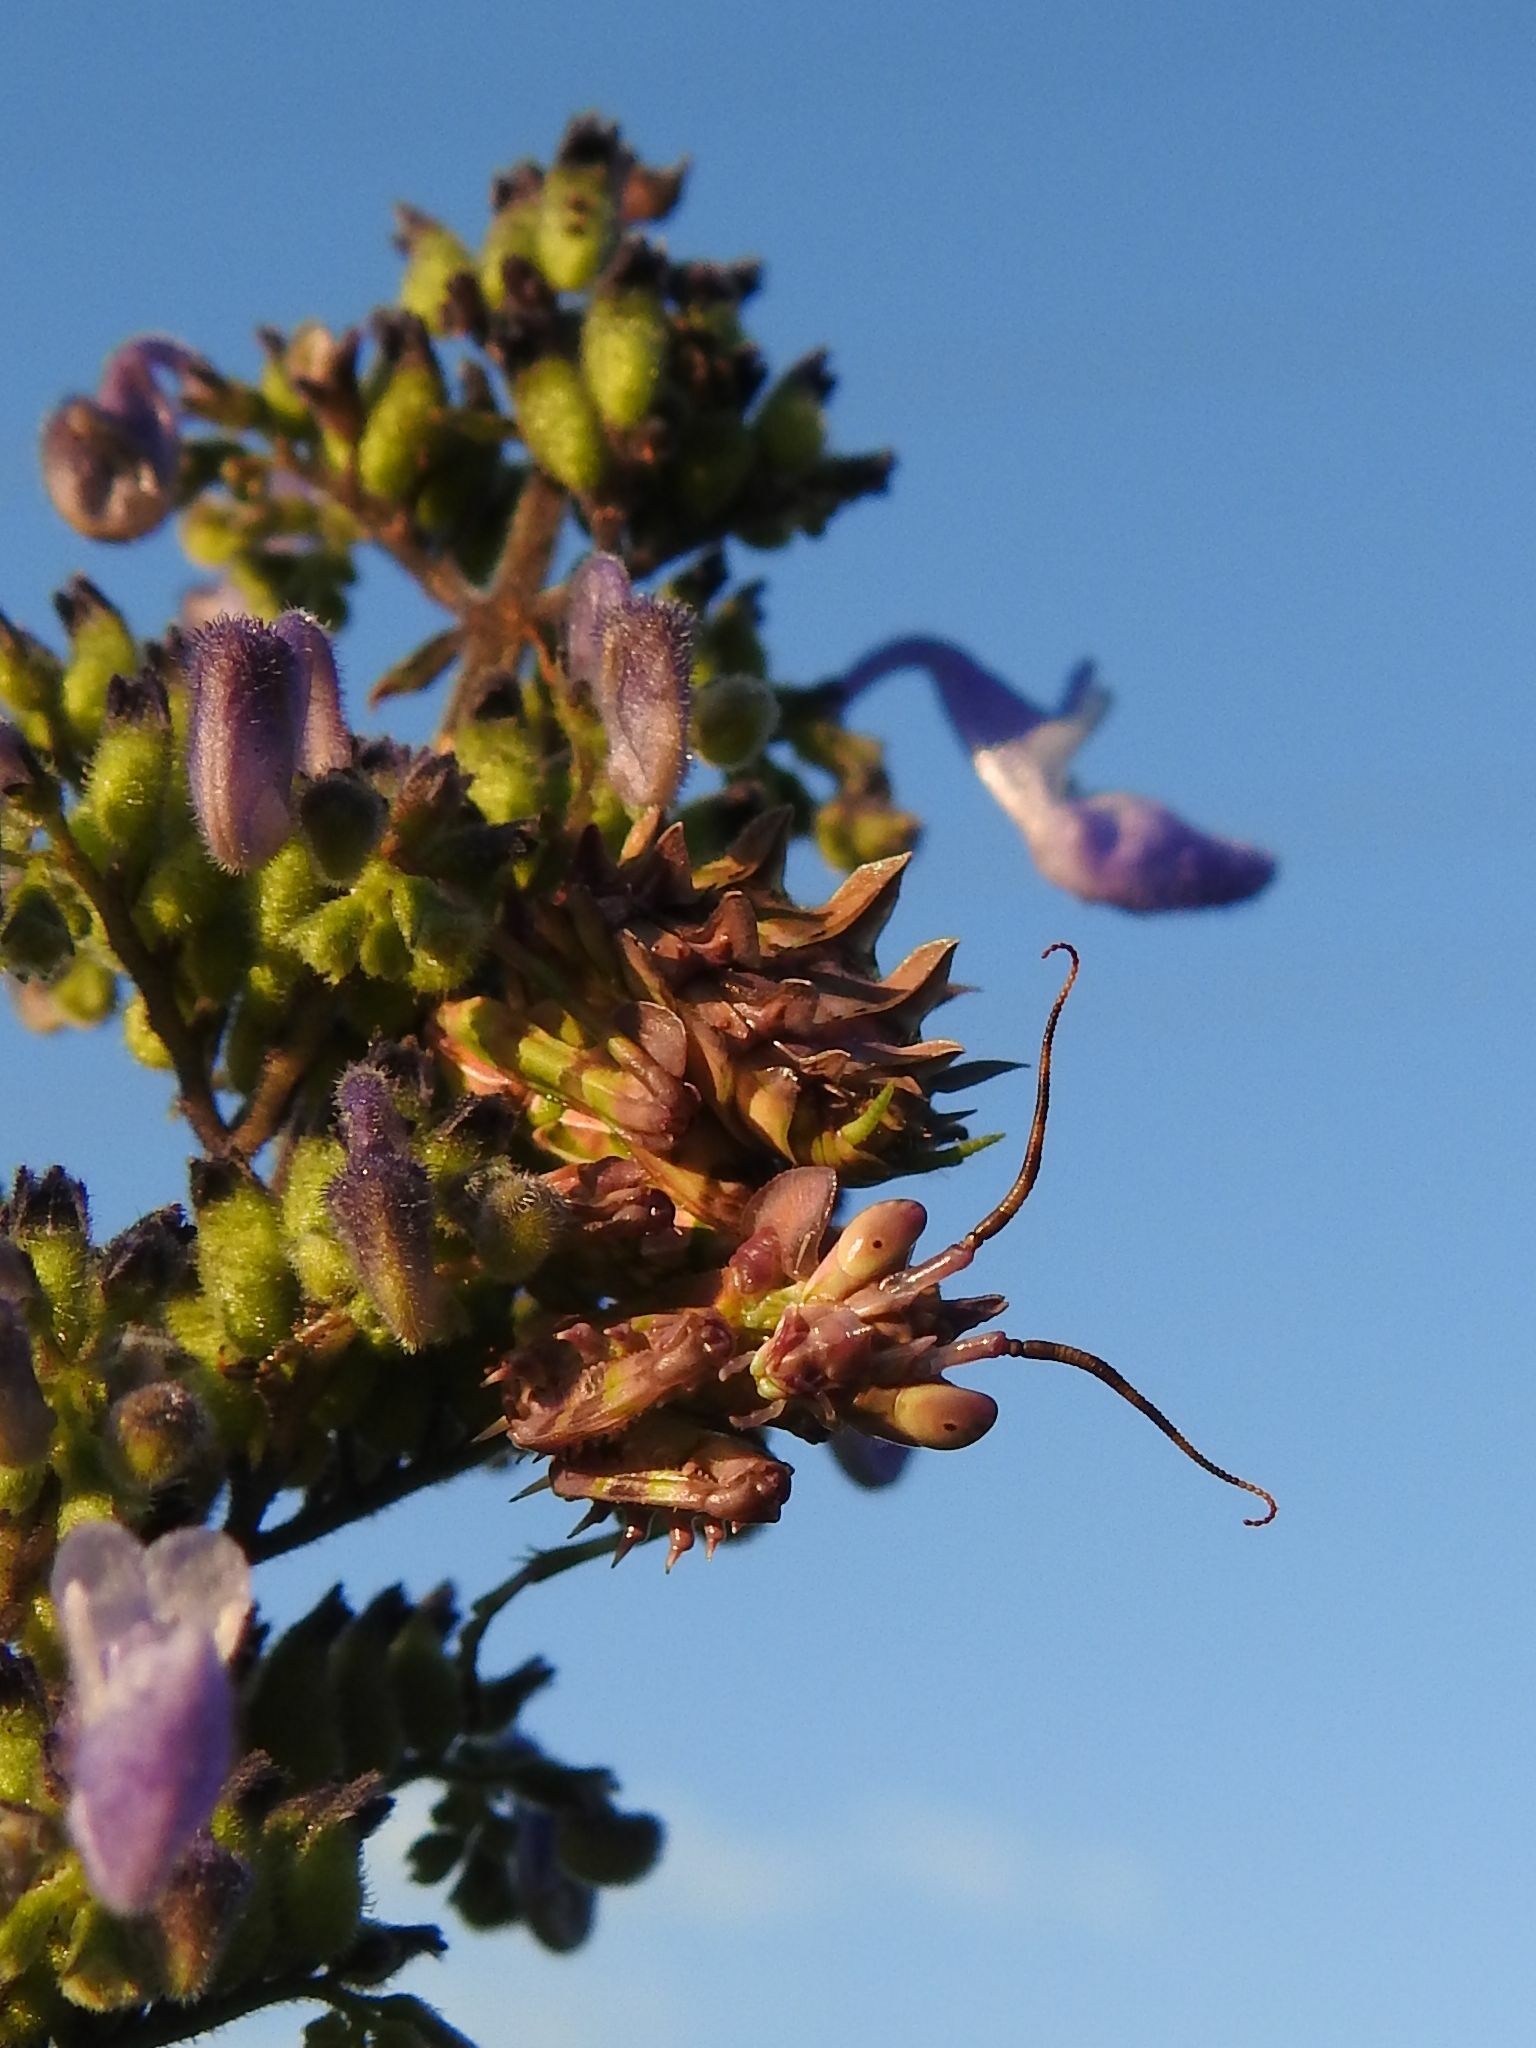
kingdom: Animalia
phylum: Arthropoda
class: Insecta
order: Mantodea
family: Hymenopodidae
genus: Pseudocreobotra
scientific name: Pseudocreobotra wahlbergi
